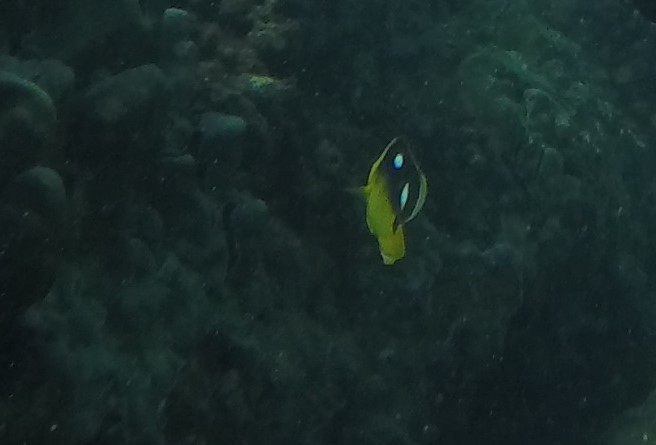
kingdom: Animalia
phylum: Chordata
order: Perciformes
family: Chaetodontidae
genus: Chaetodon
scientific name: Chaetodon quadrimaculatus
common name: Fourspot butterflyfish
